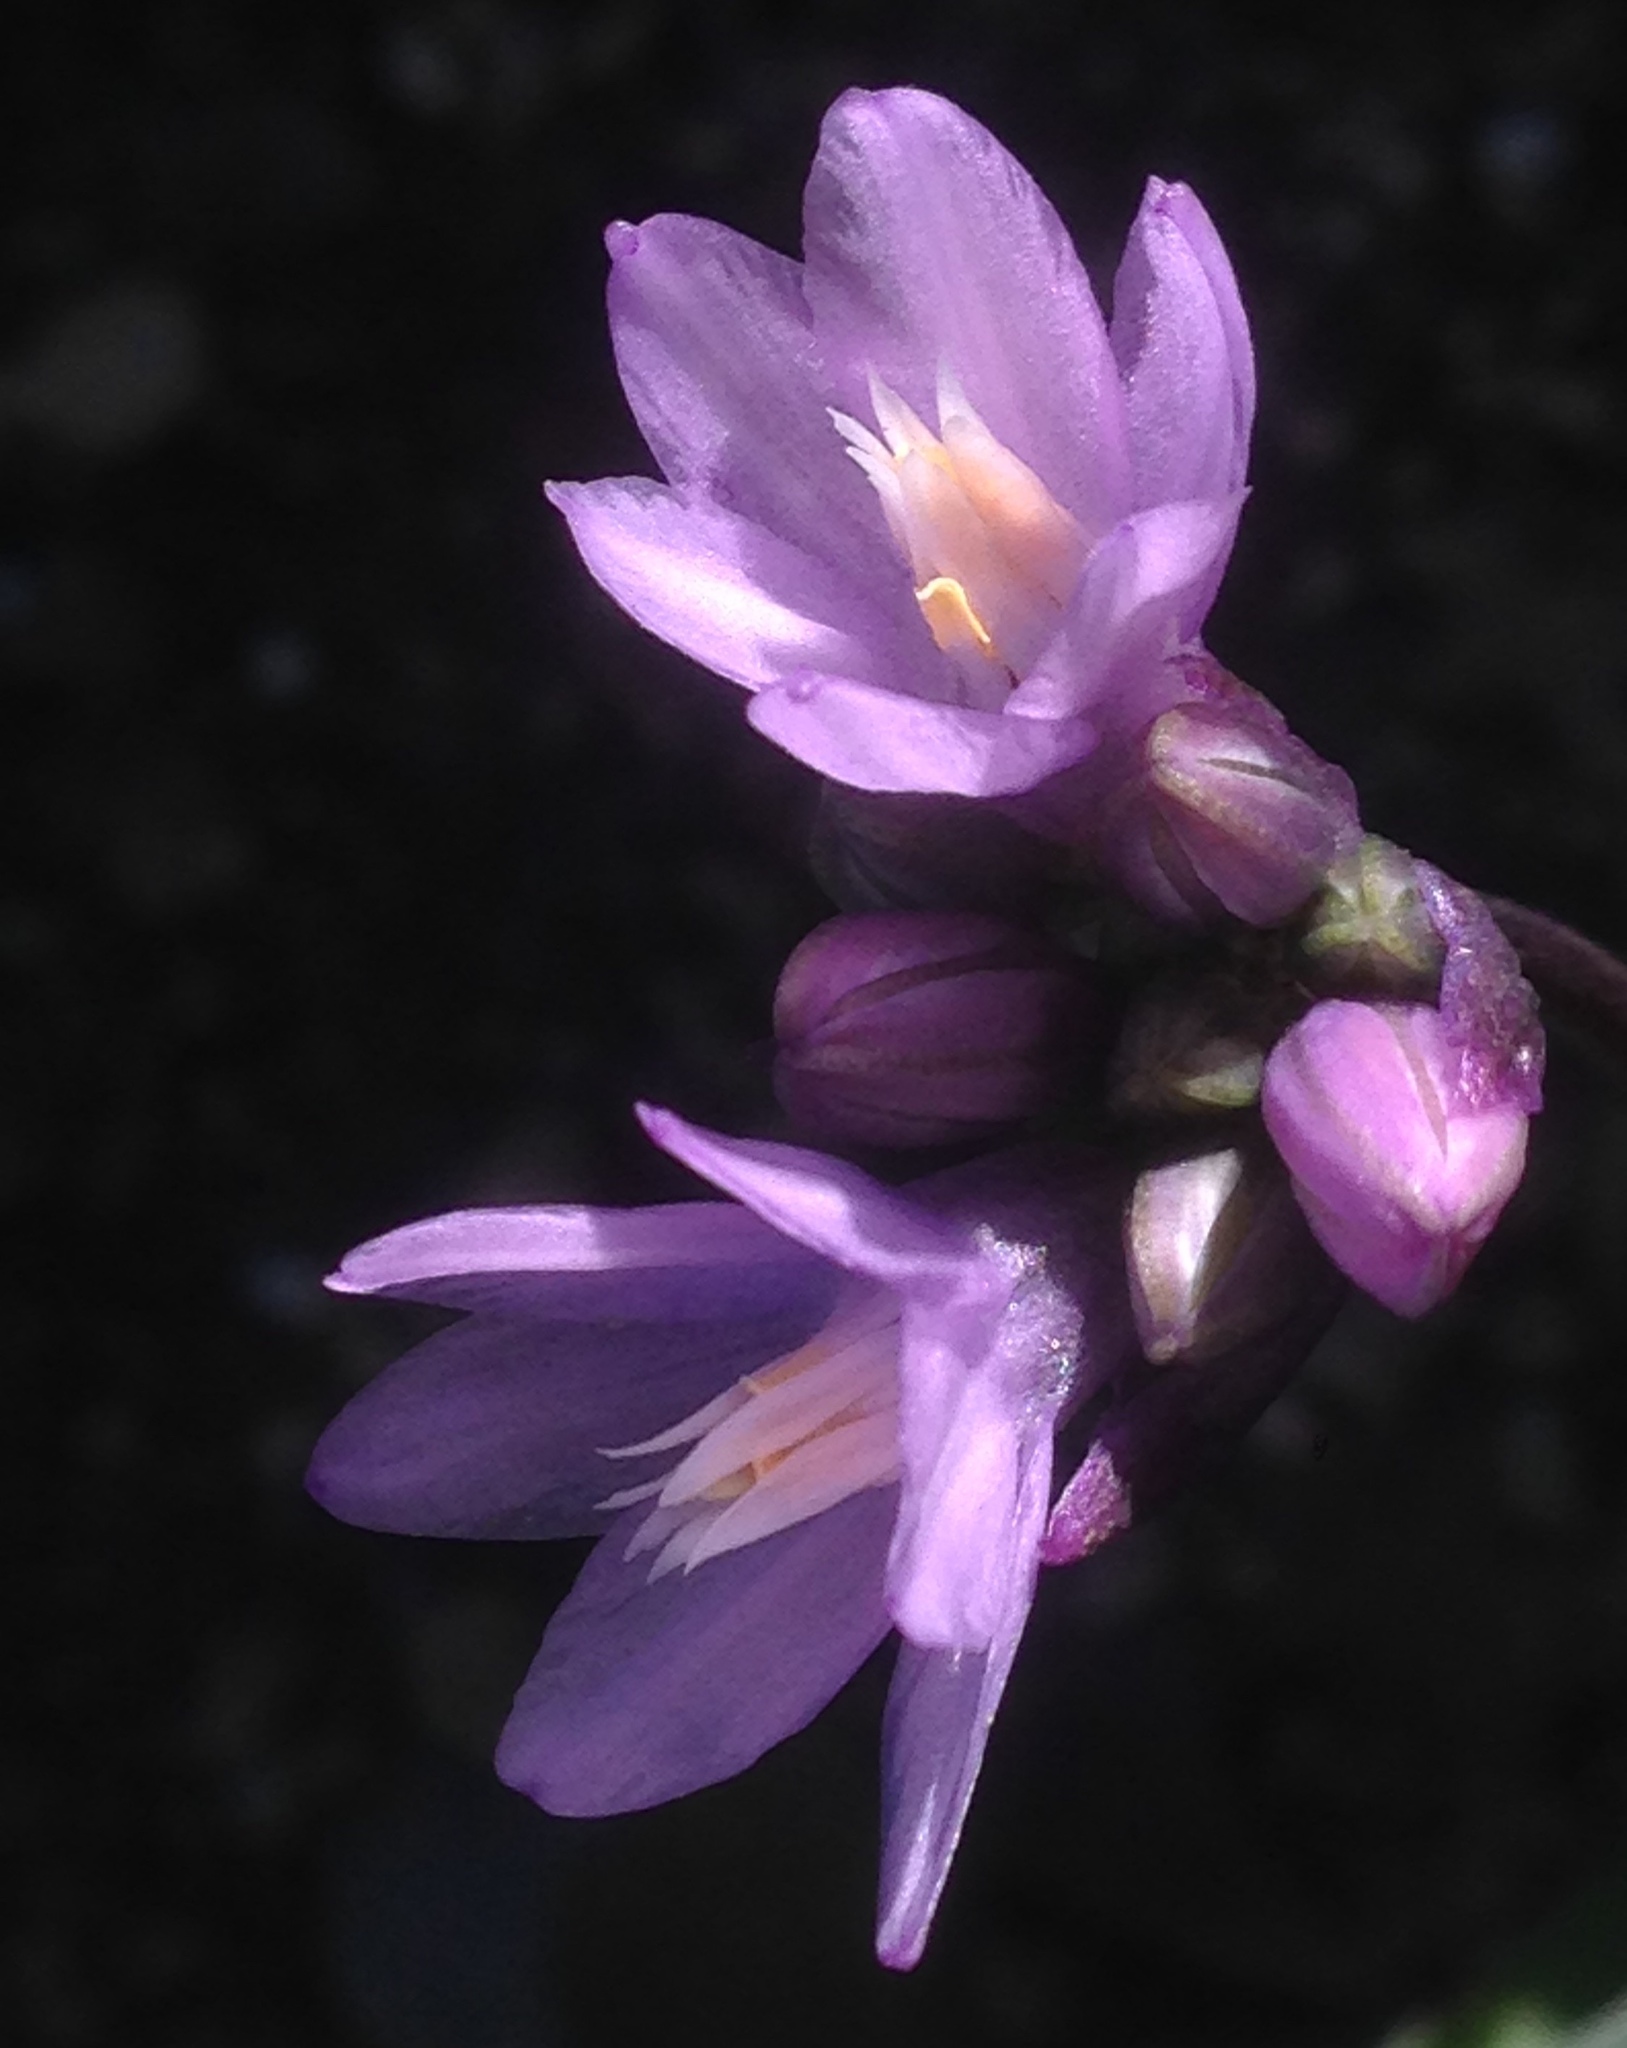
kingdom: Plantae
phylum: Tracheophyta
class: Liliopsida
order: Asparagales
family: Asparagaceae
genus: Dipterostemon
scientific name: Dipterostemon capitatus
